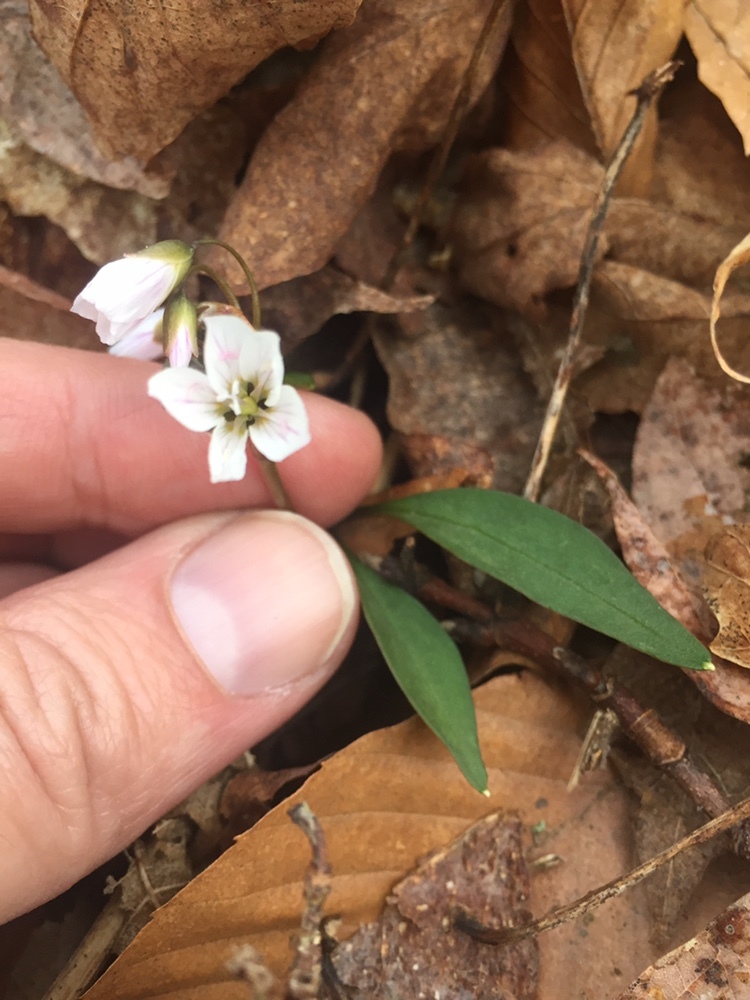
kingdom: Plantae
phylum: Tracheophyta
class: Magnoliopsida
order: Caryophyllales
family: Montiaceae
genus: Claytonia
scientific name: Claytonia caroliniana
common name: Carolina spring beauty
